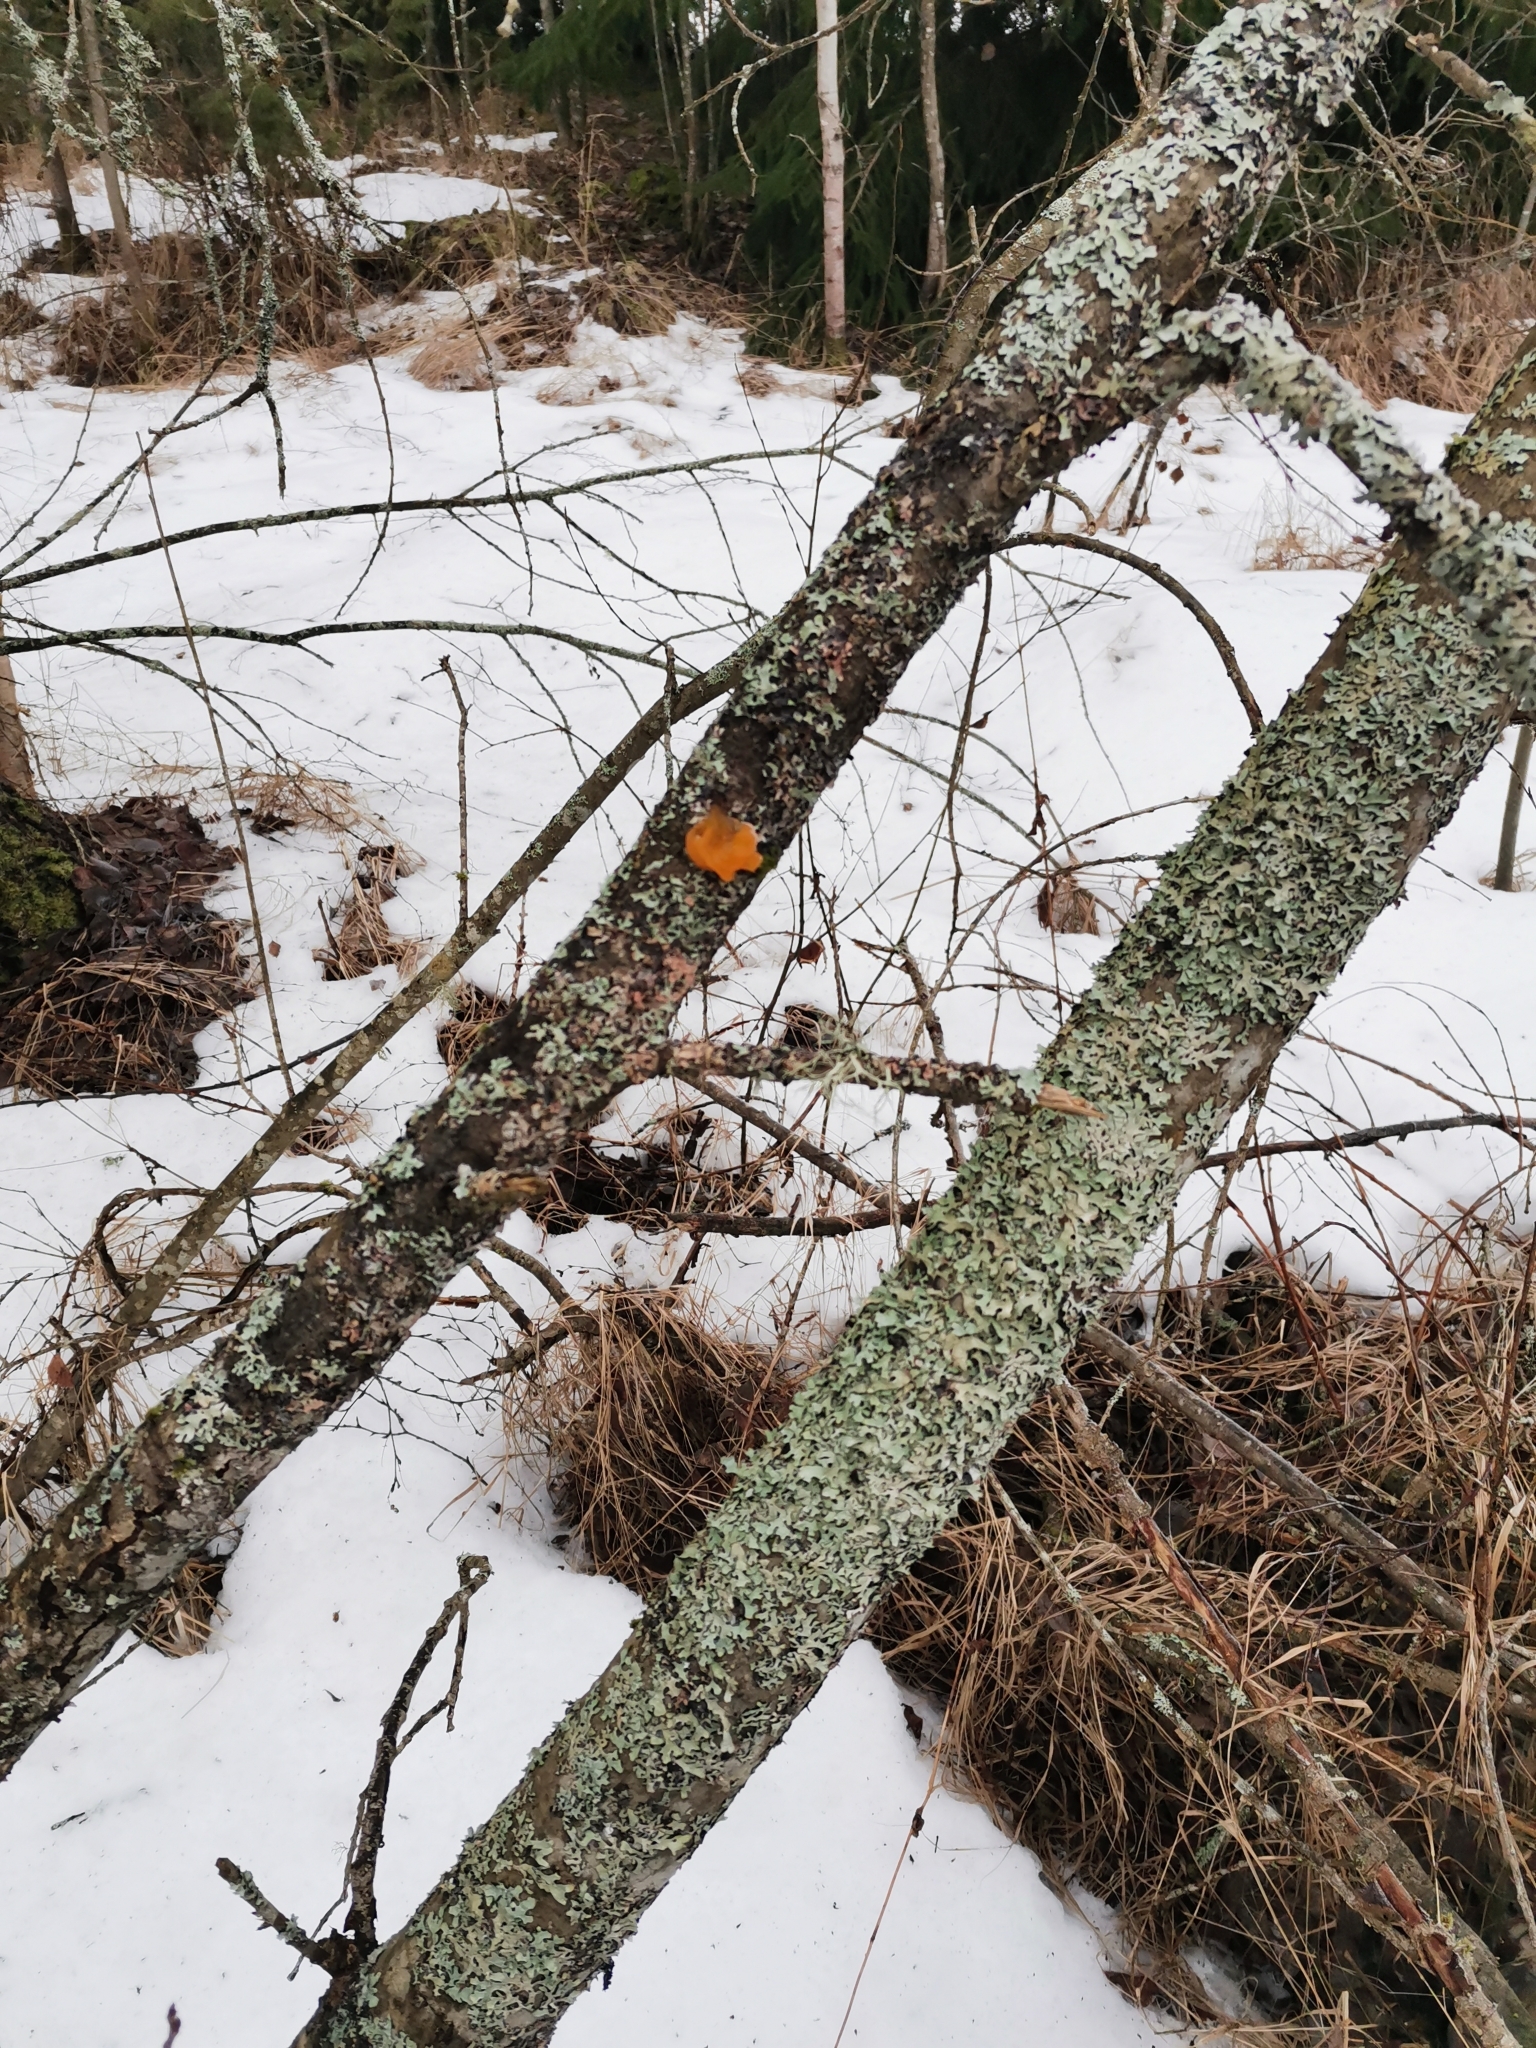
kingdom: Fungi
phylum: Basidiomycota
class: Tremellomycetes
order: Tremellales
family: Tremellaceae
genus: Tremella
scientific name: Tremella mesenterica
